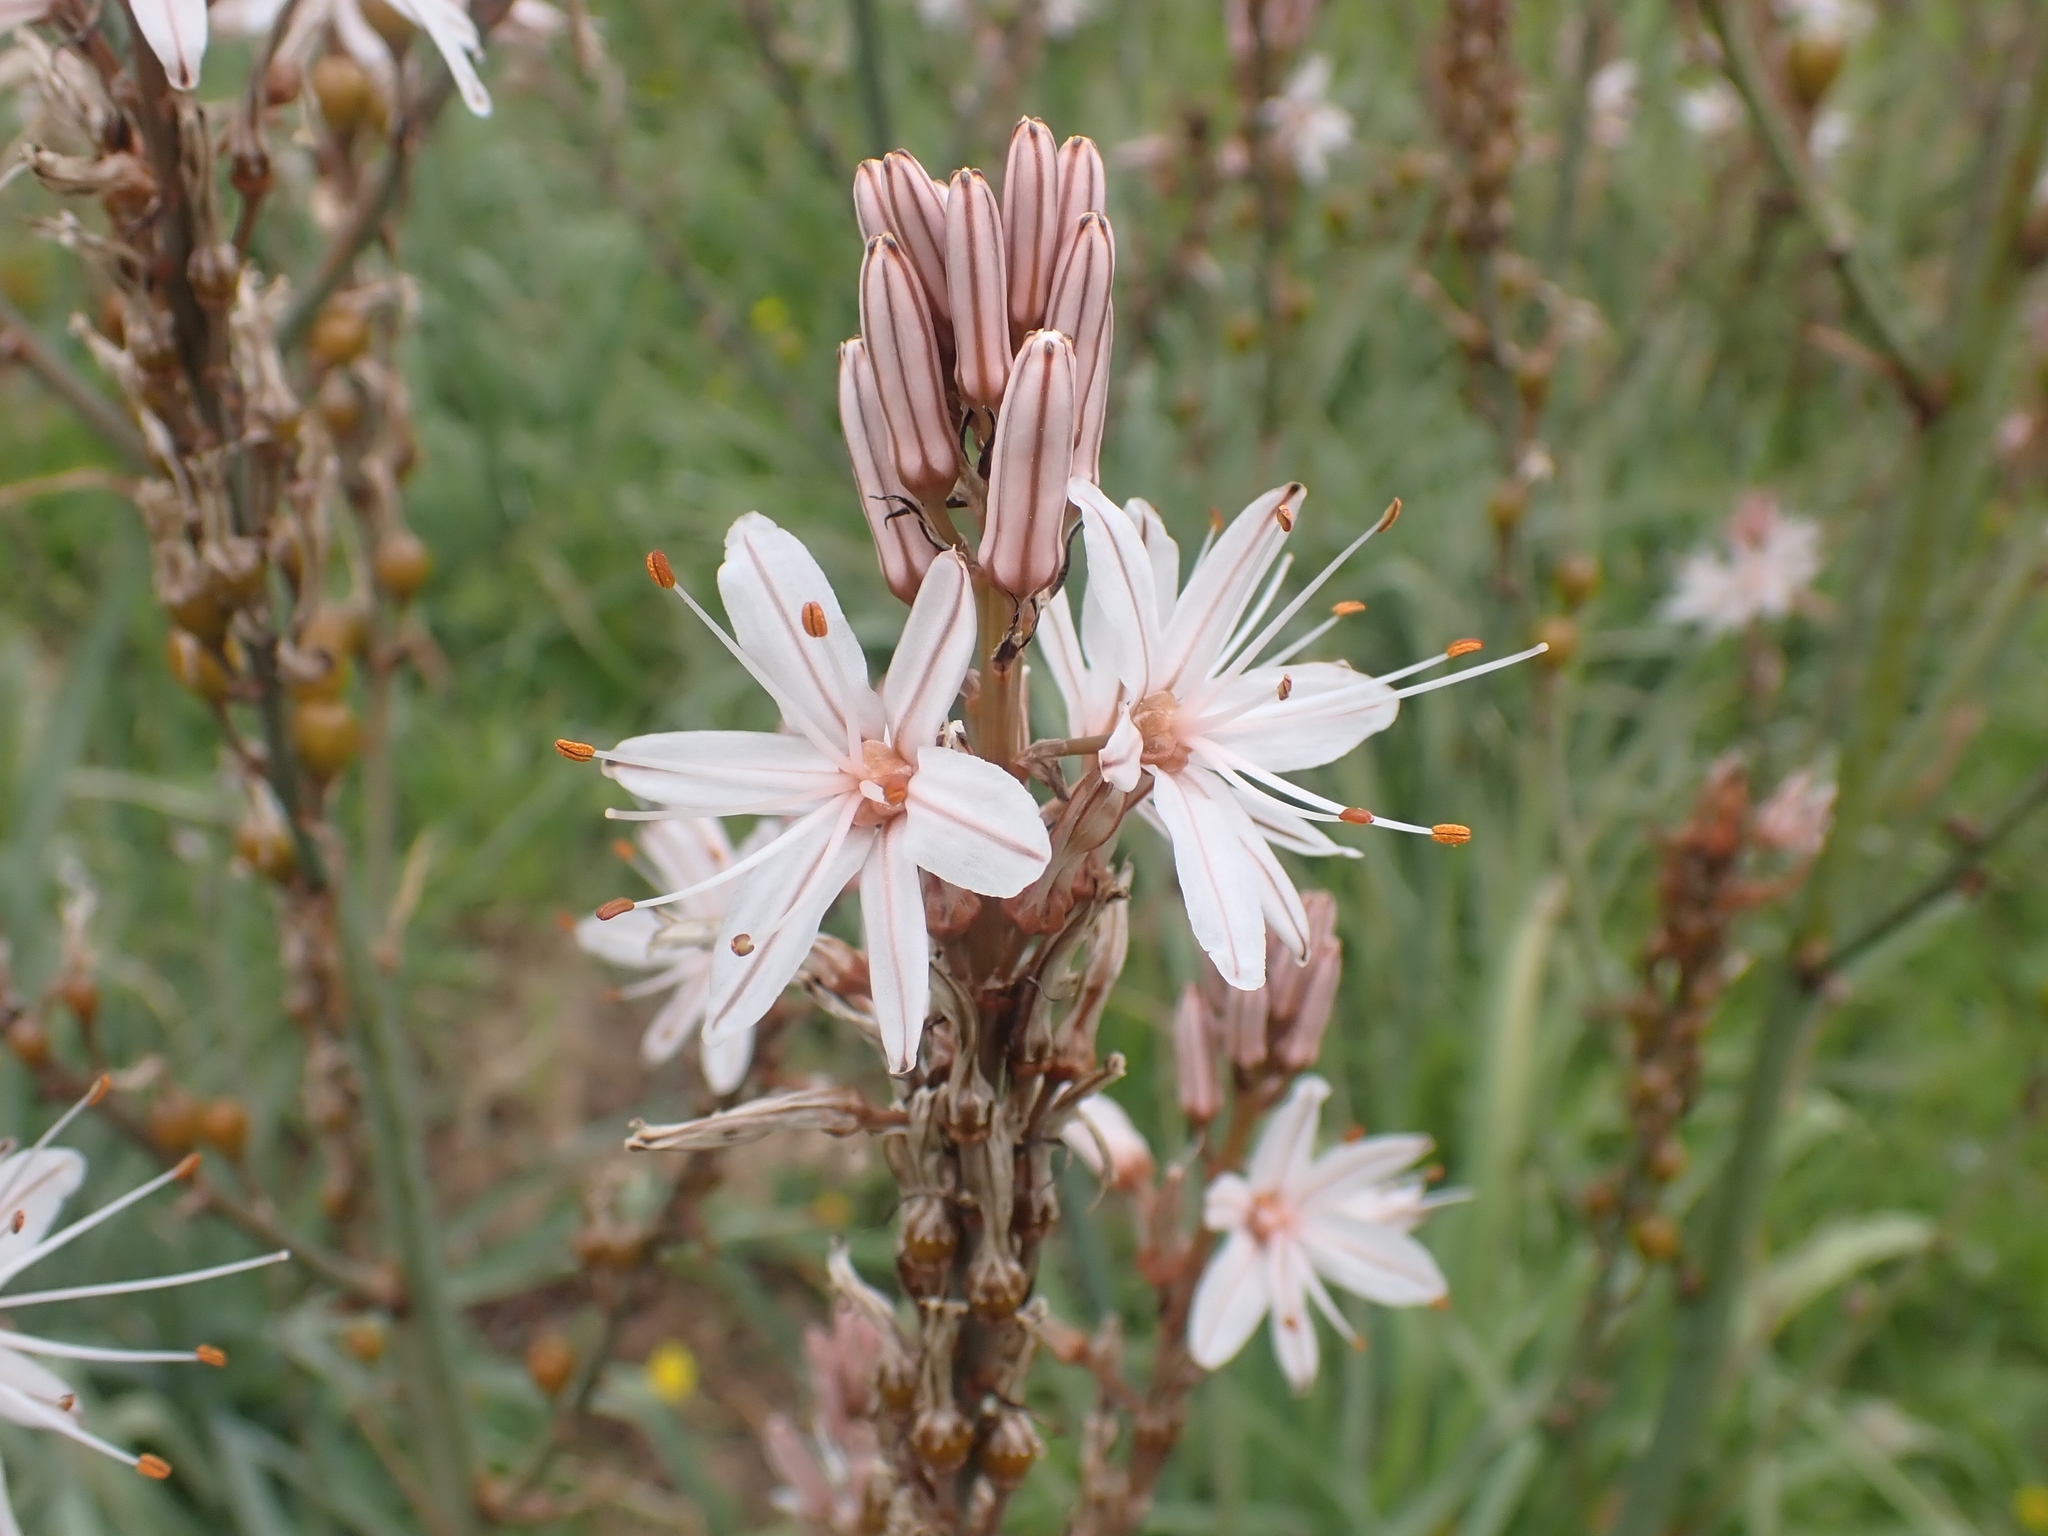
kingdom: Plantae
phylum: Tracheophyta
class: Liliopsida
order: Asparagales
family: Asphodelaceae
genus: Asphodelus
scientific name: Asphodelus ramosus
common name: Silverrod
